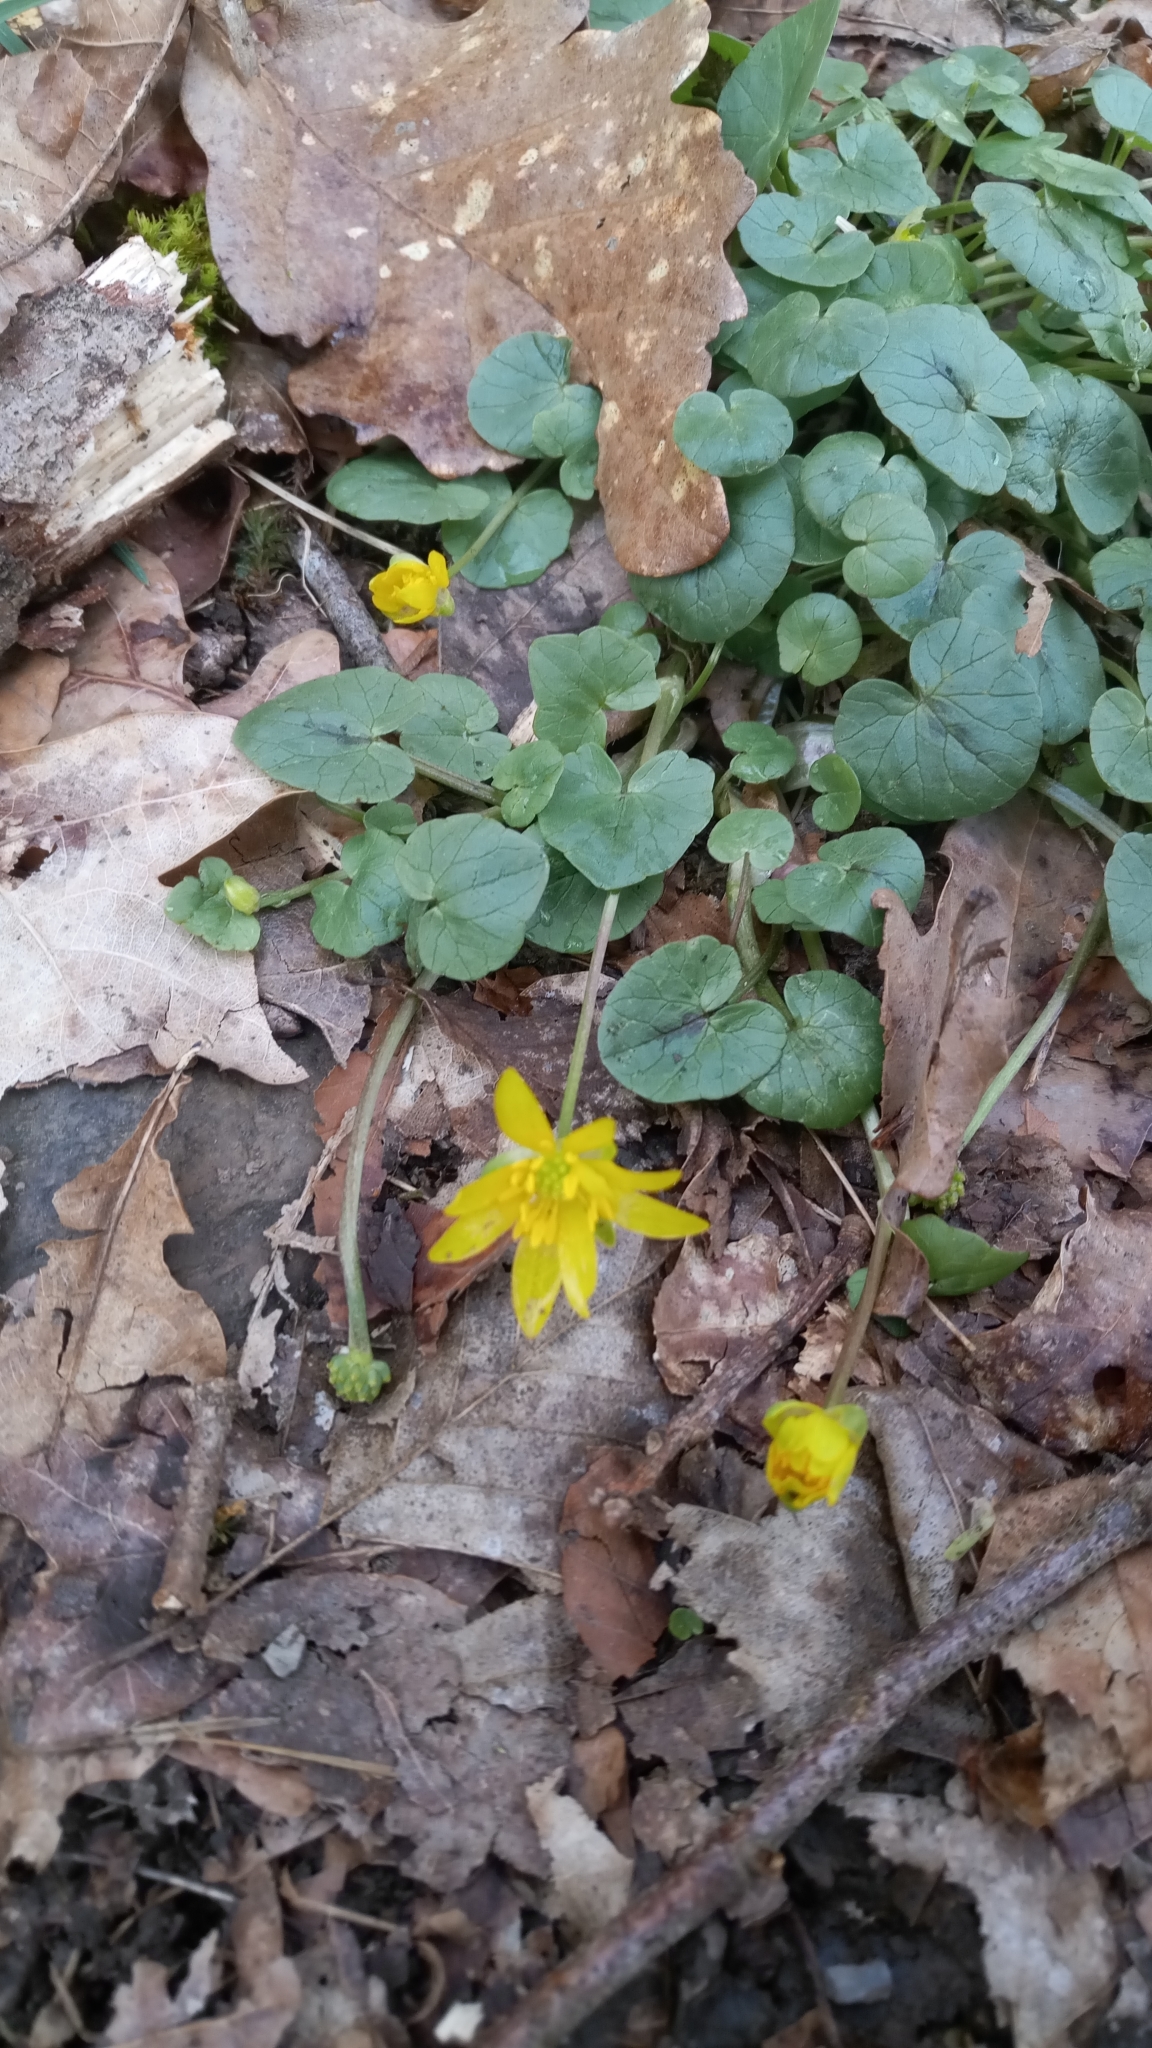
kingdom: Plantae
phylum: Tracheophyta
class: Magnoliopsida
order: Ranunculales
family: Ranunculaceae
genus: Ficaria
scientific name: Ficaria verna
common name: Lesser celandine
